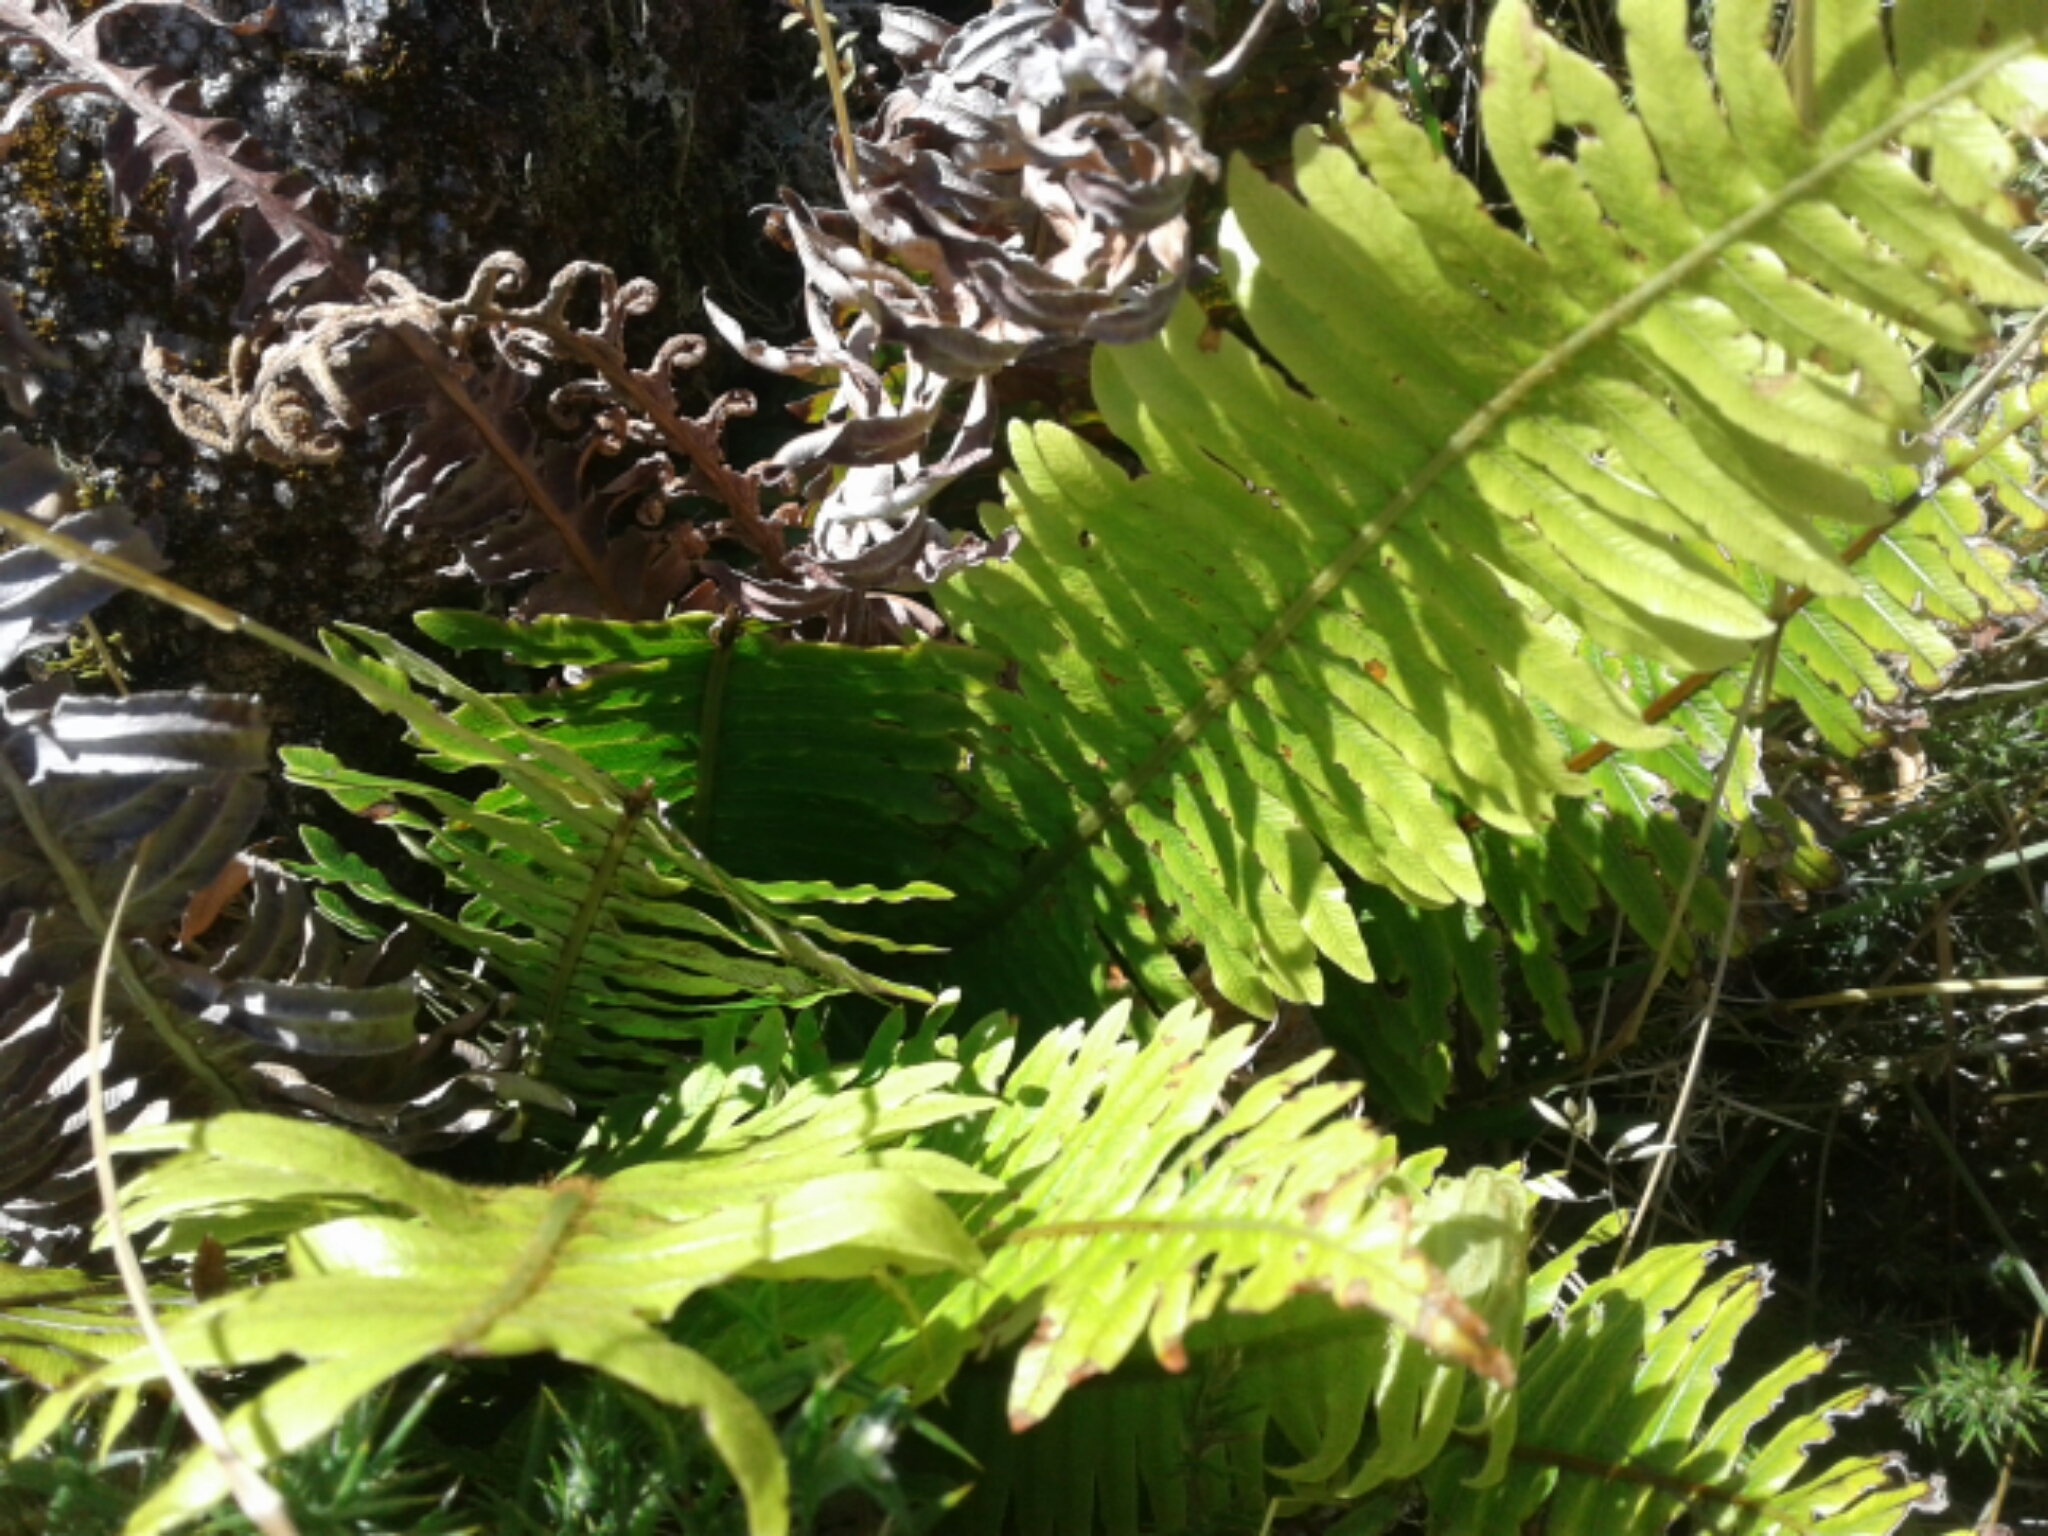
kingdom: Plantae
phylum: Tracheophyta
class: Polypodiopsida
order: Polypodiales
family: Blechnaceae
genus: Lomaria
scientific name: Lomaria discolor
